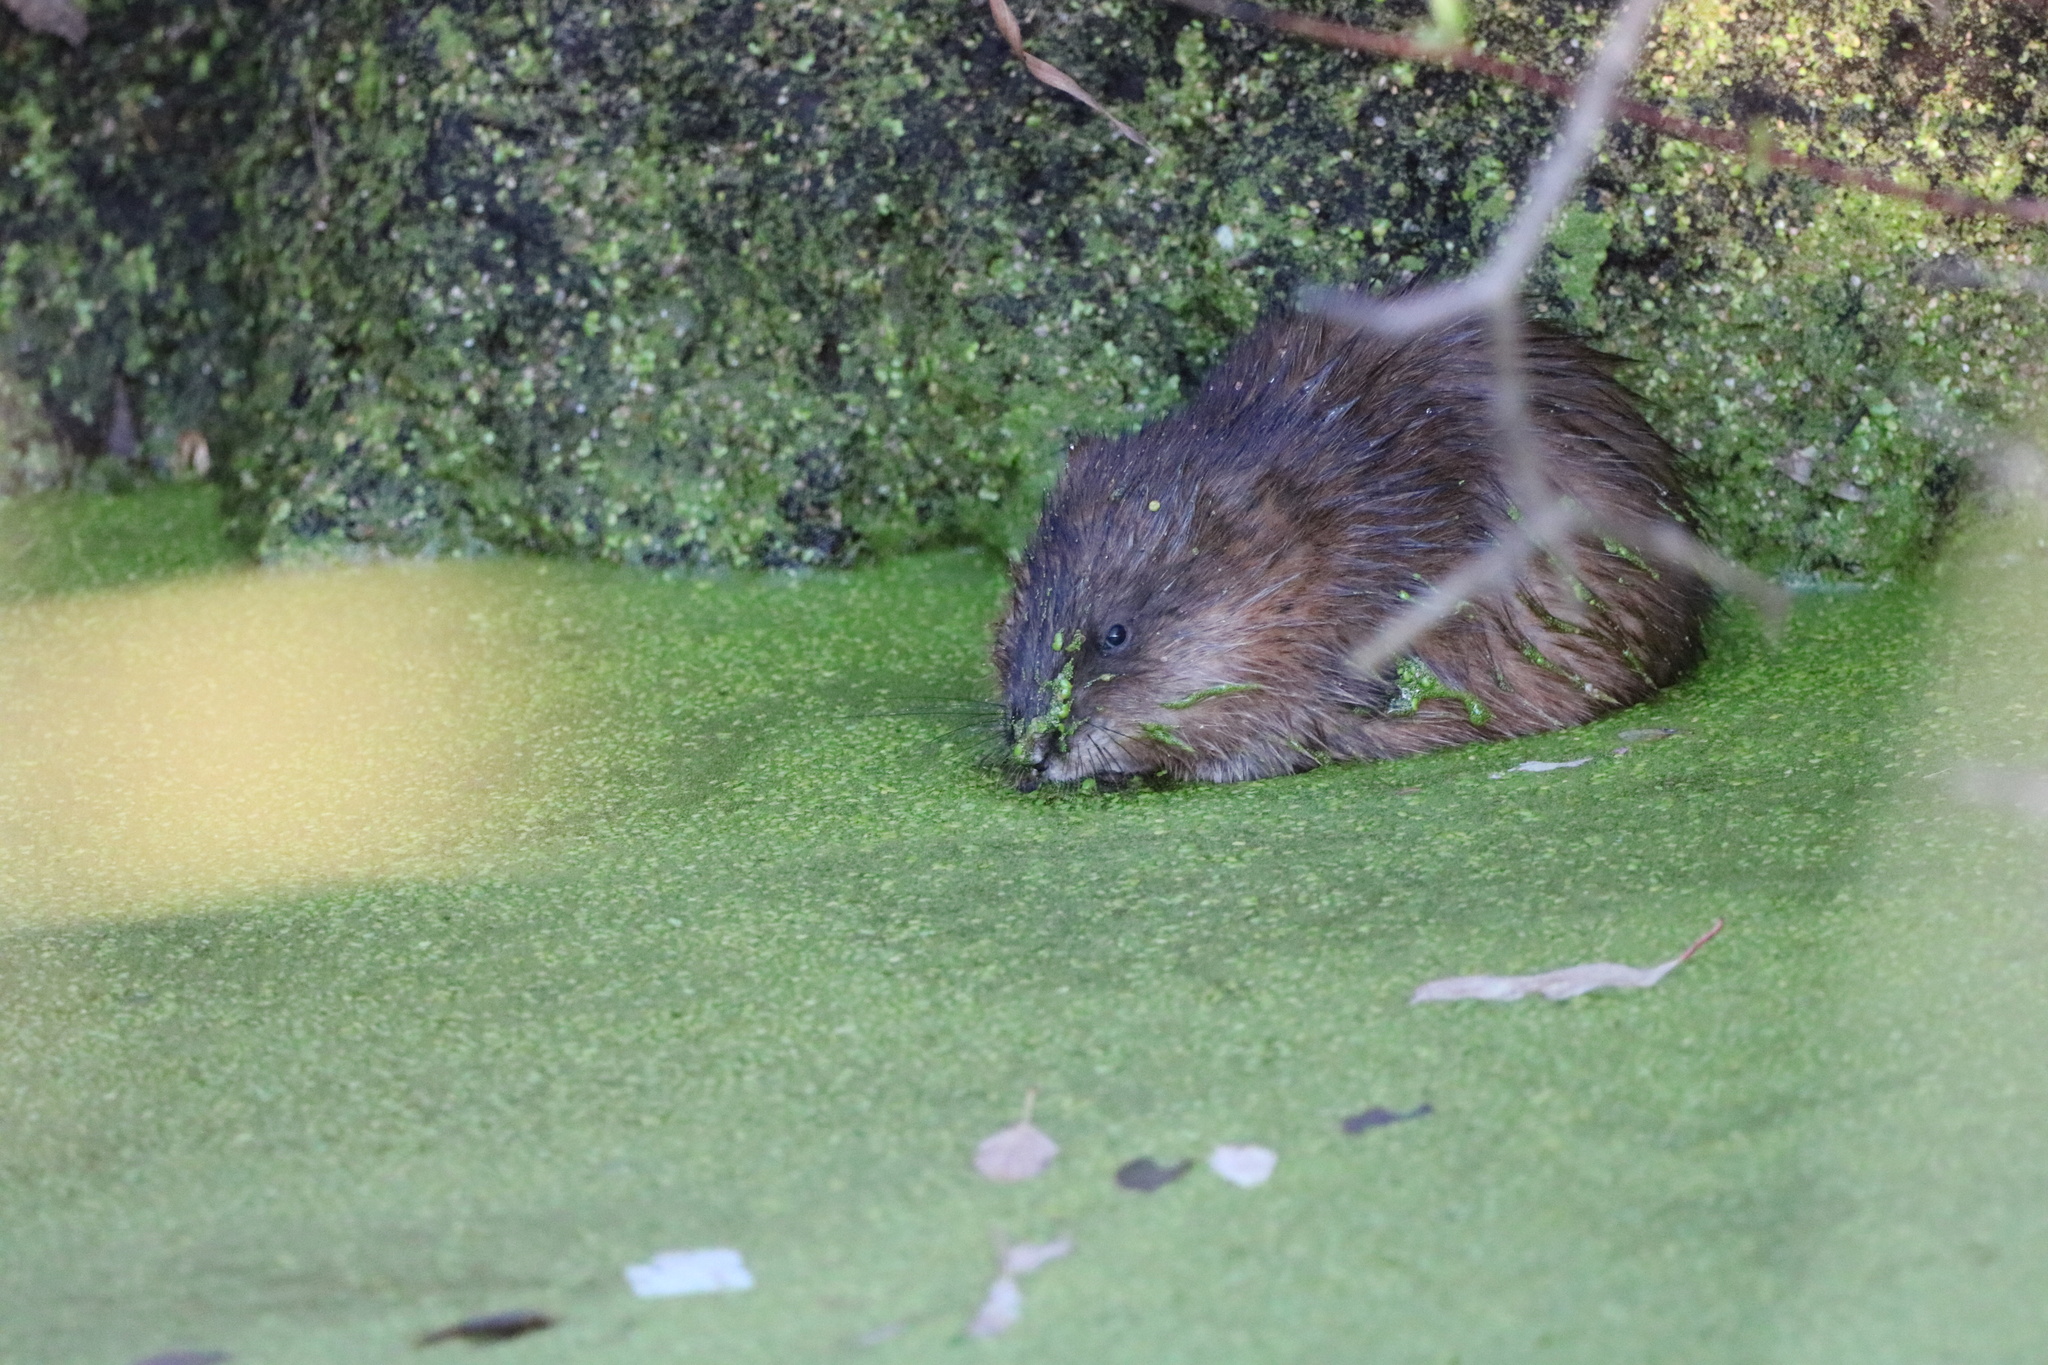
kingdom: Animalia
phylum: Chordata
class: Mammalia
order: Rodentia
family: Cricetidae
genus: Ondatra
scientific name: Ondatra zibethicus
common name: Muskrat
